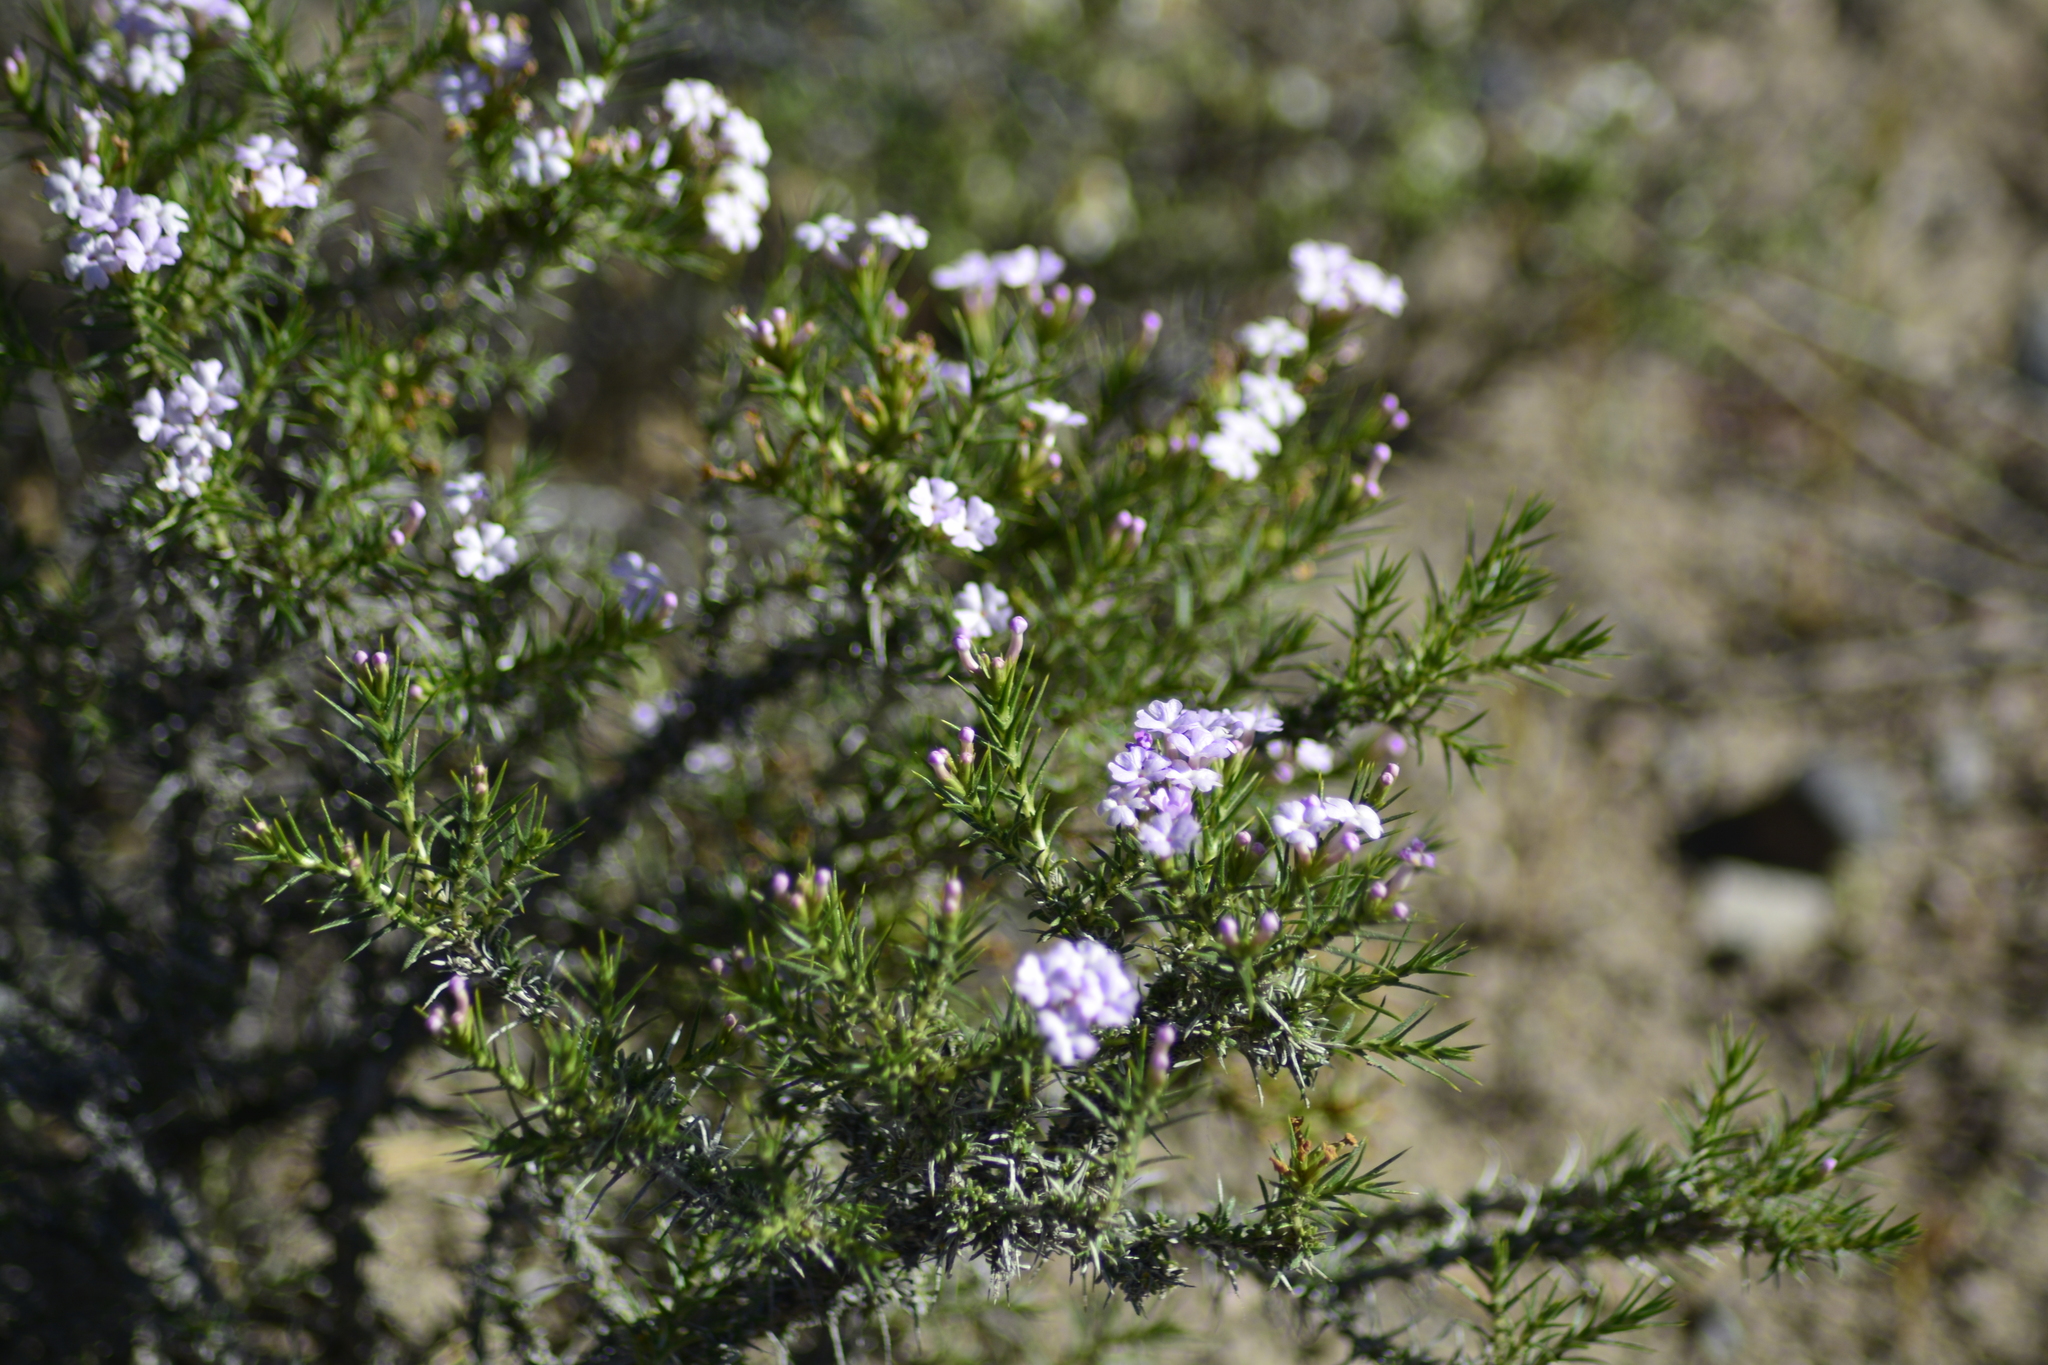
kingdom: Plantae
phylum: Tracheophyta
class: Magnoliopsida
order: Lamiales
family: Verbenaceae
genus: Junellia
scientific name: Junellia seriphioides
